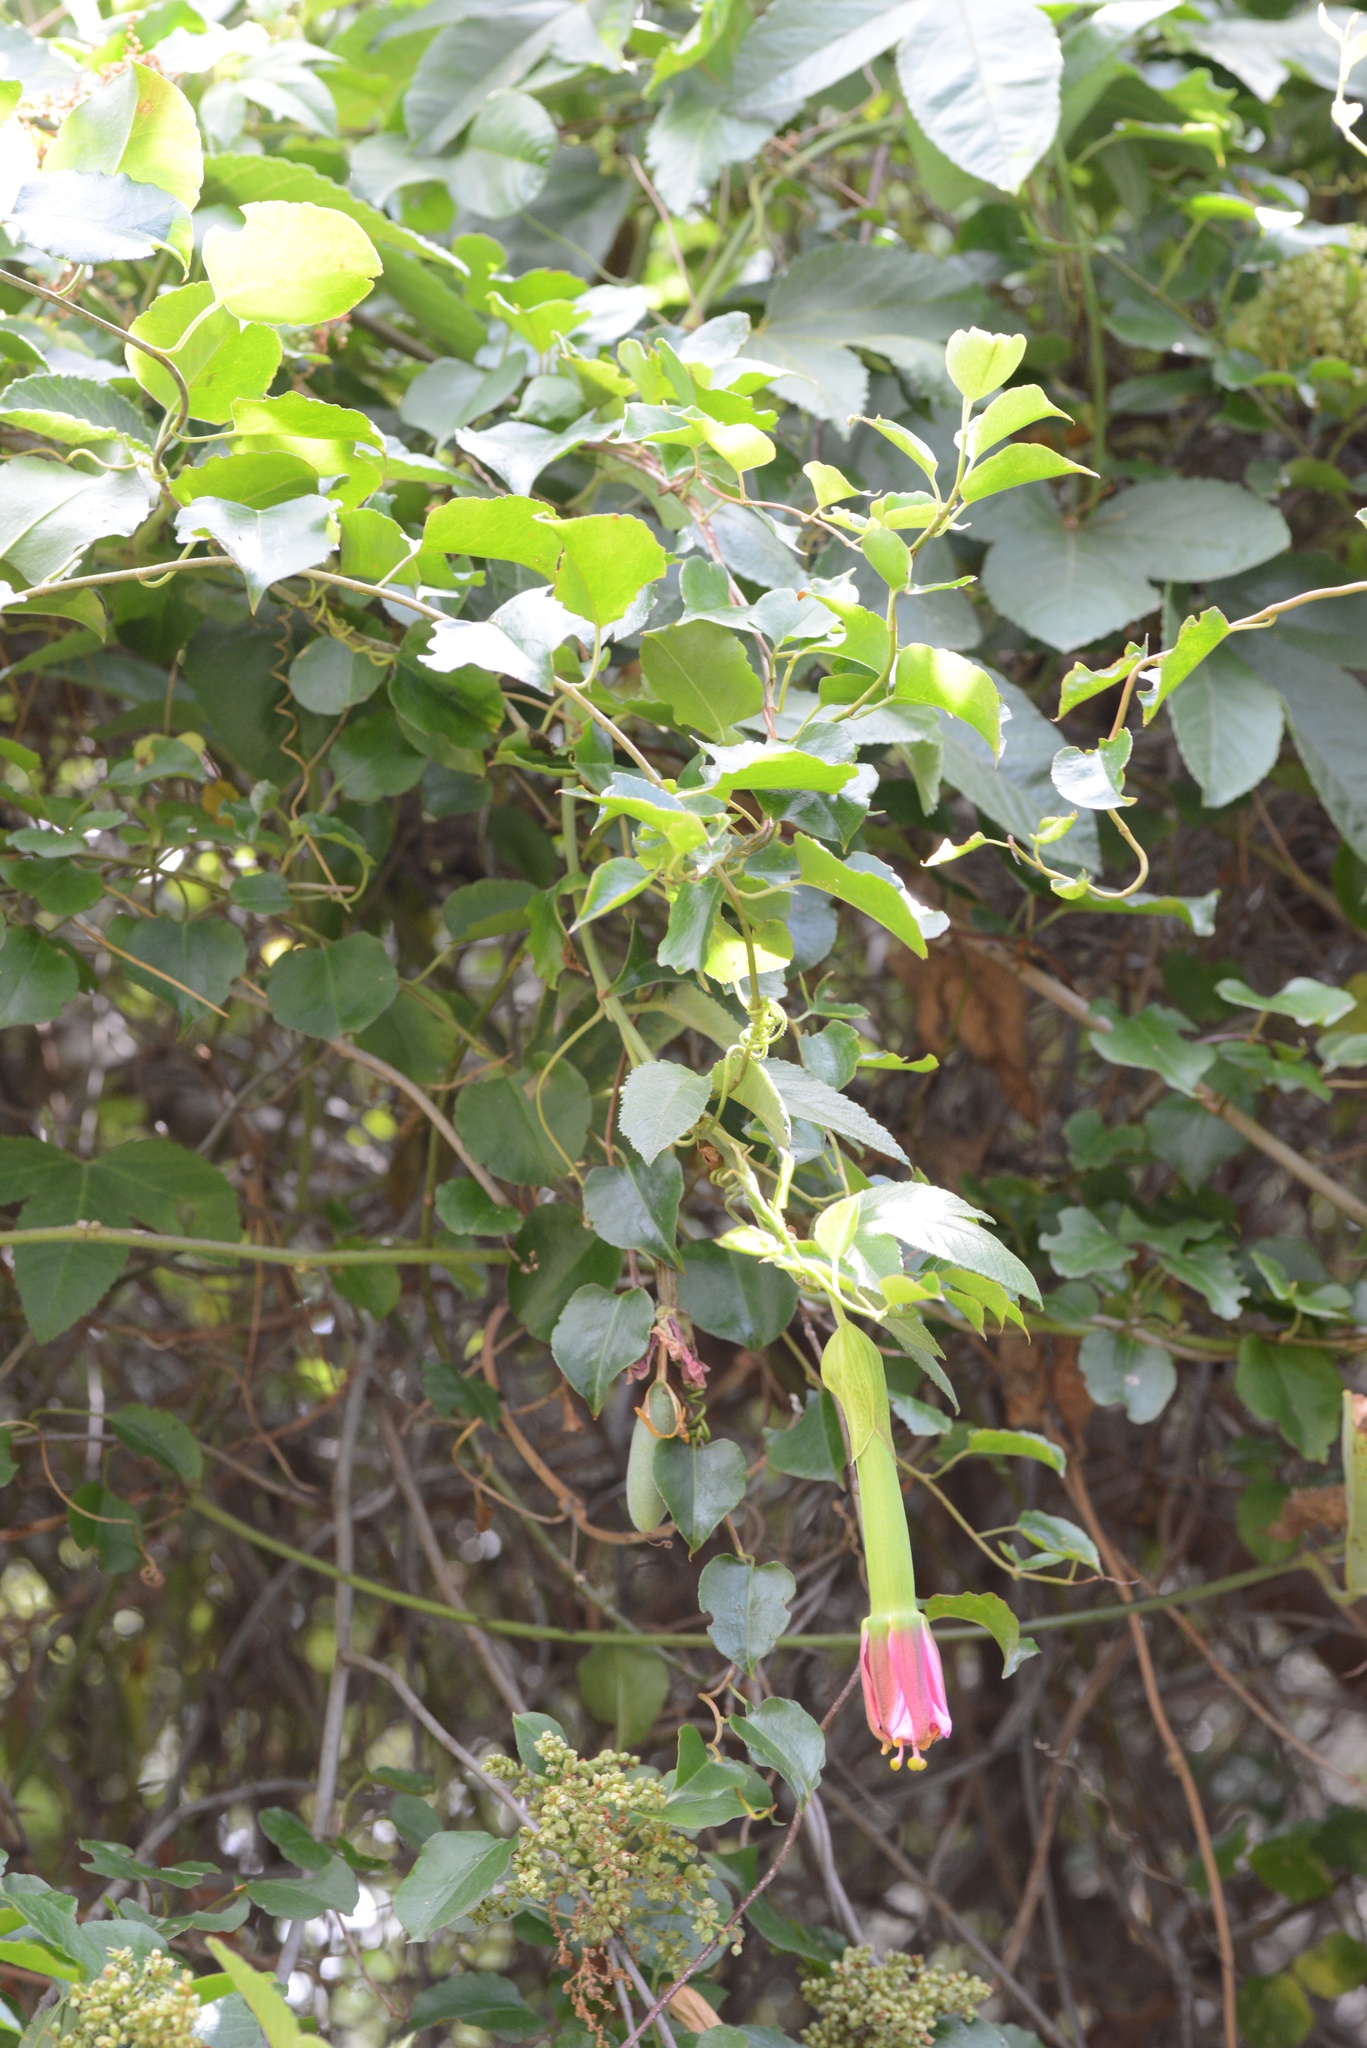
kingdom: Plantae
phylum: Tracheophyta
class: Magnoliopsida
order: Malpighiales
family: Passifloraceae
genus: Passiflora
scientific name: Passiflora tripartita
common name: Banana poka
